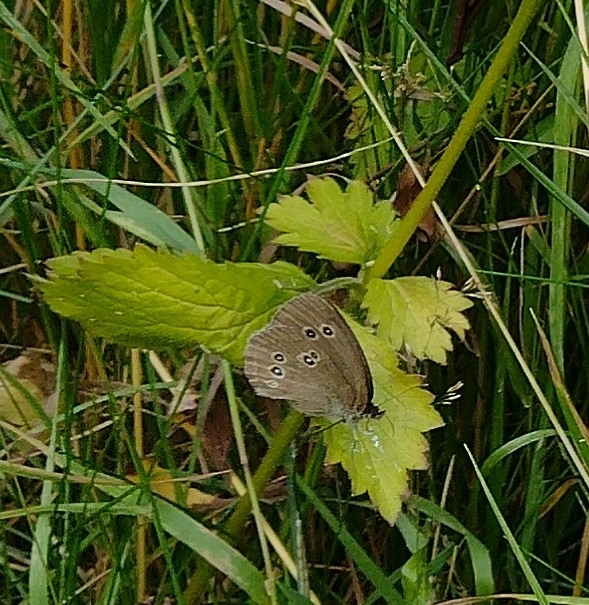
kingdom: Animalia
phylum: Arthropoda
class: Insecta
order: Lepidoptera
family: Nymphalidae
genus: Aphantopus
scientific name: Aphantopus hyperantus
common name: Ringlet
